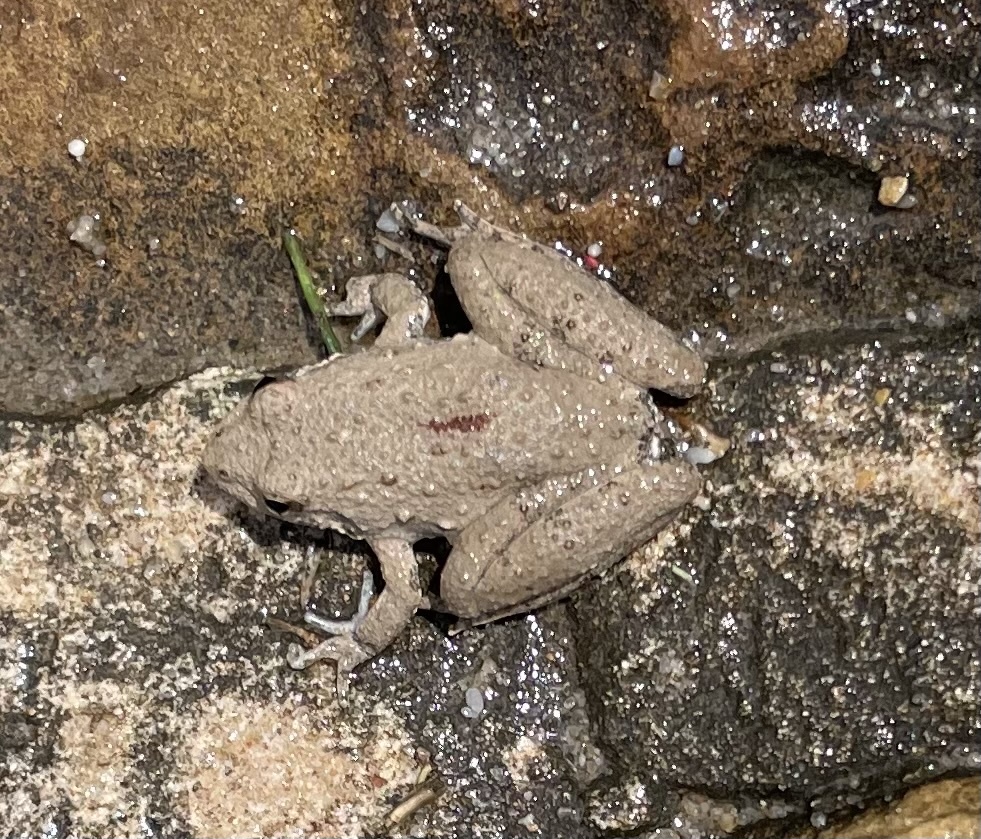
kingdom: Animalia
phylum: Chordata
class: Amphibia
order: Anura
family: Hylidae
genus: Acris
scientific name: Acris blanchardi
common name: Blanchard's cricket frog
